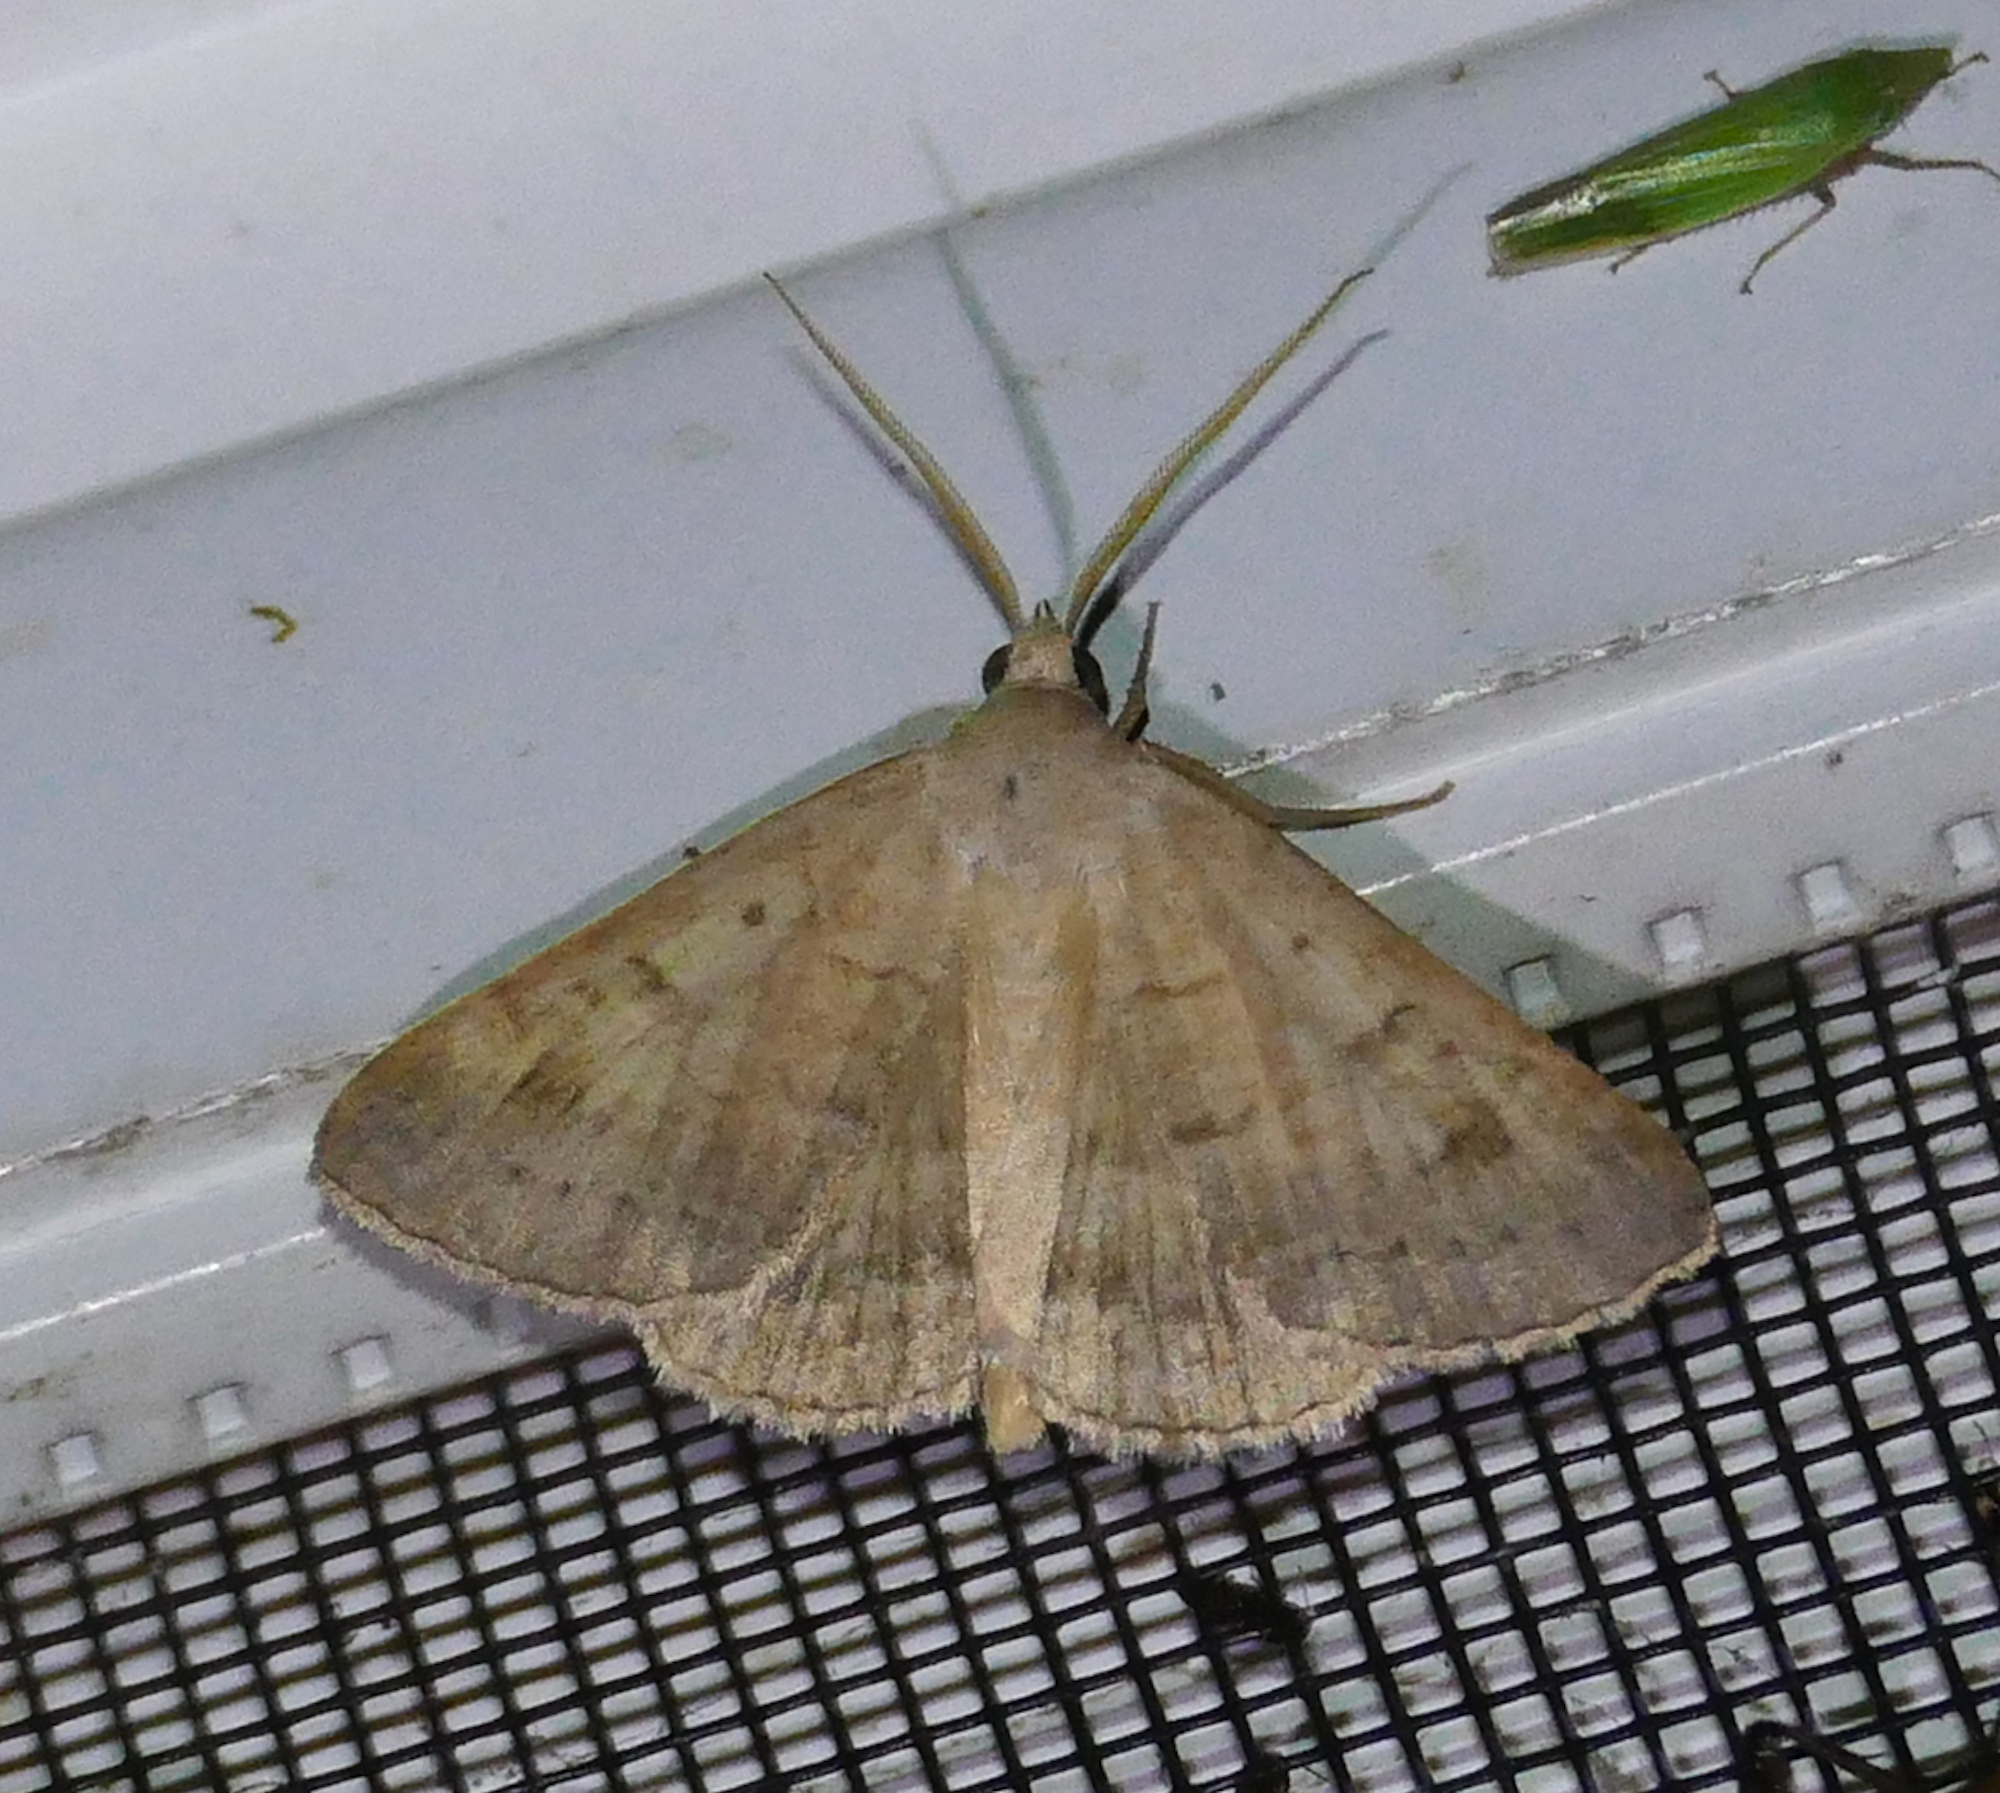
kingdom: Animalia
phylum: Arthropoda
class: Insecta
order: Lepidoptera
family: Erebidae
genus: Caenurgia
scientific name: Caenurgia chloropha
